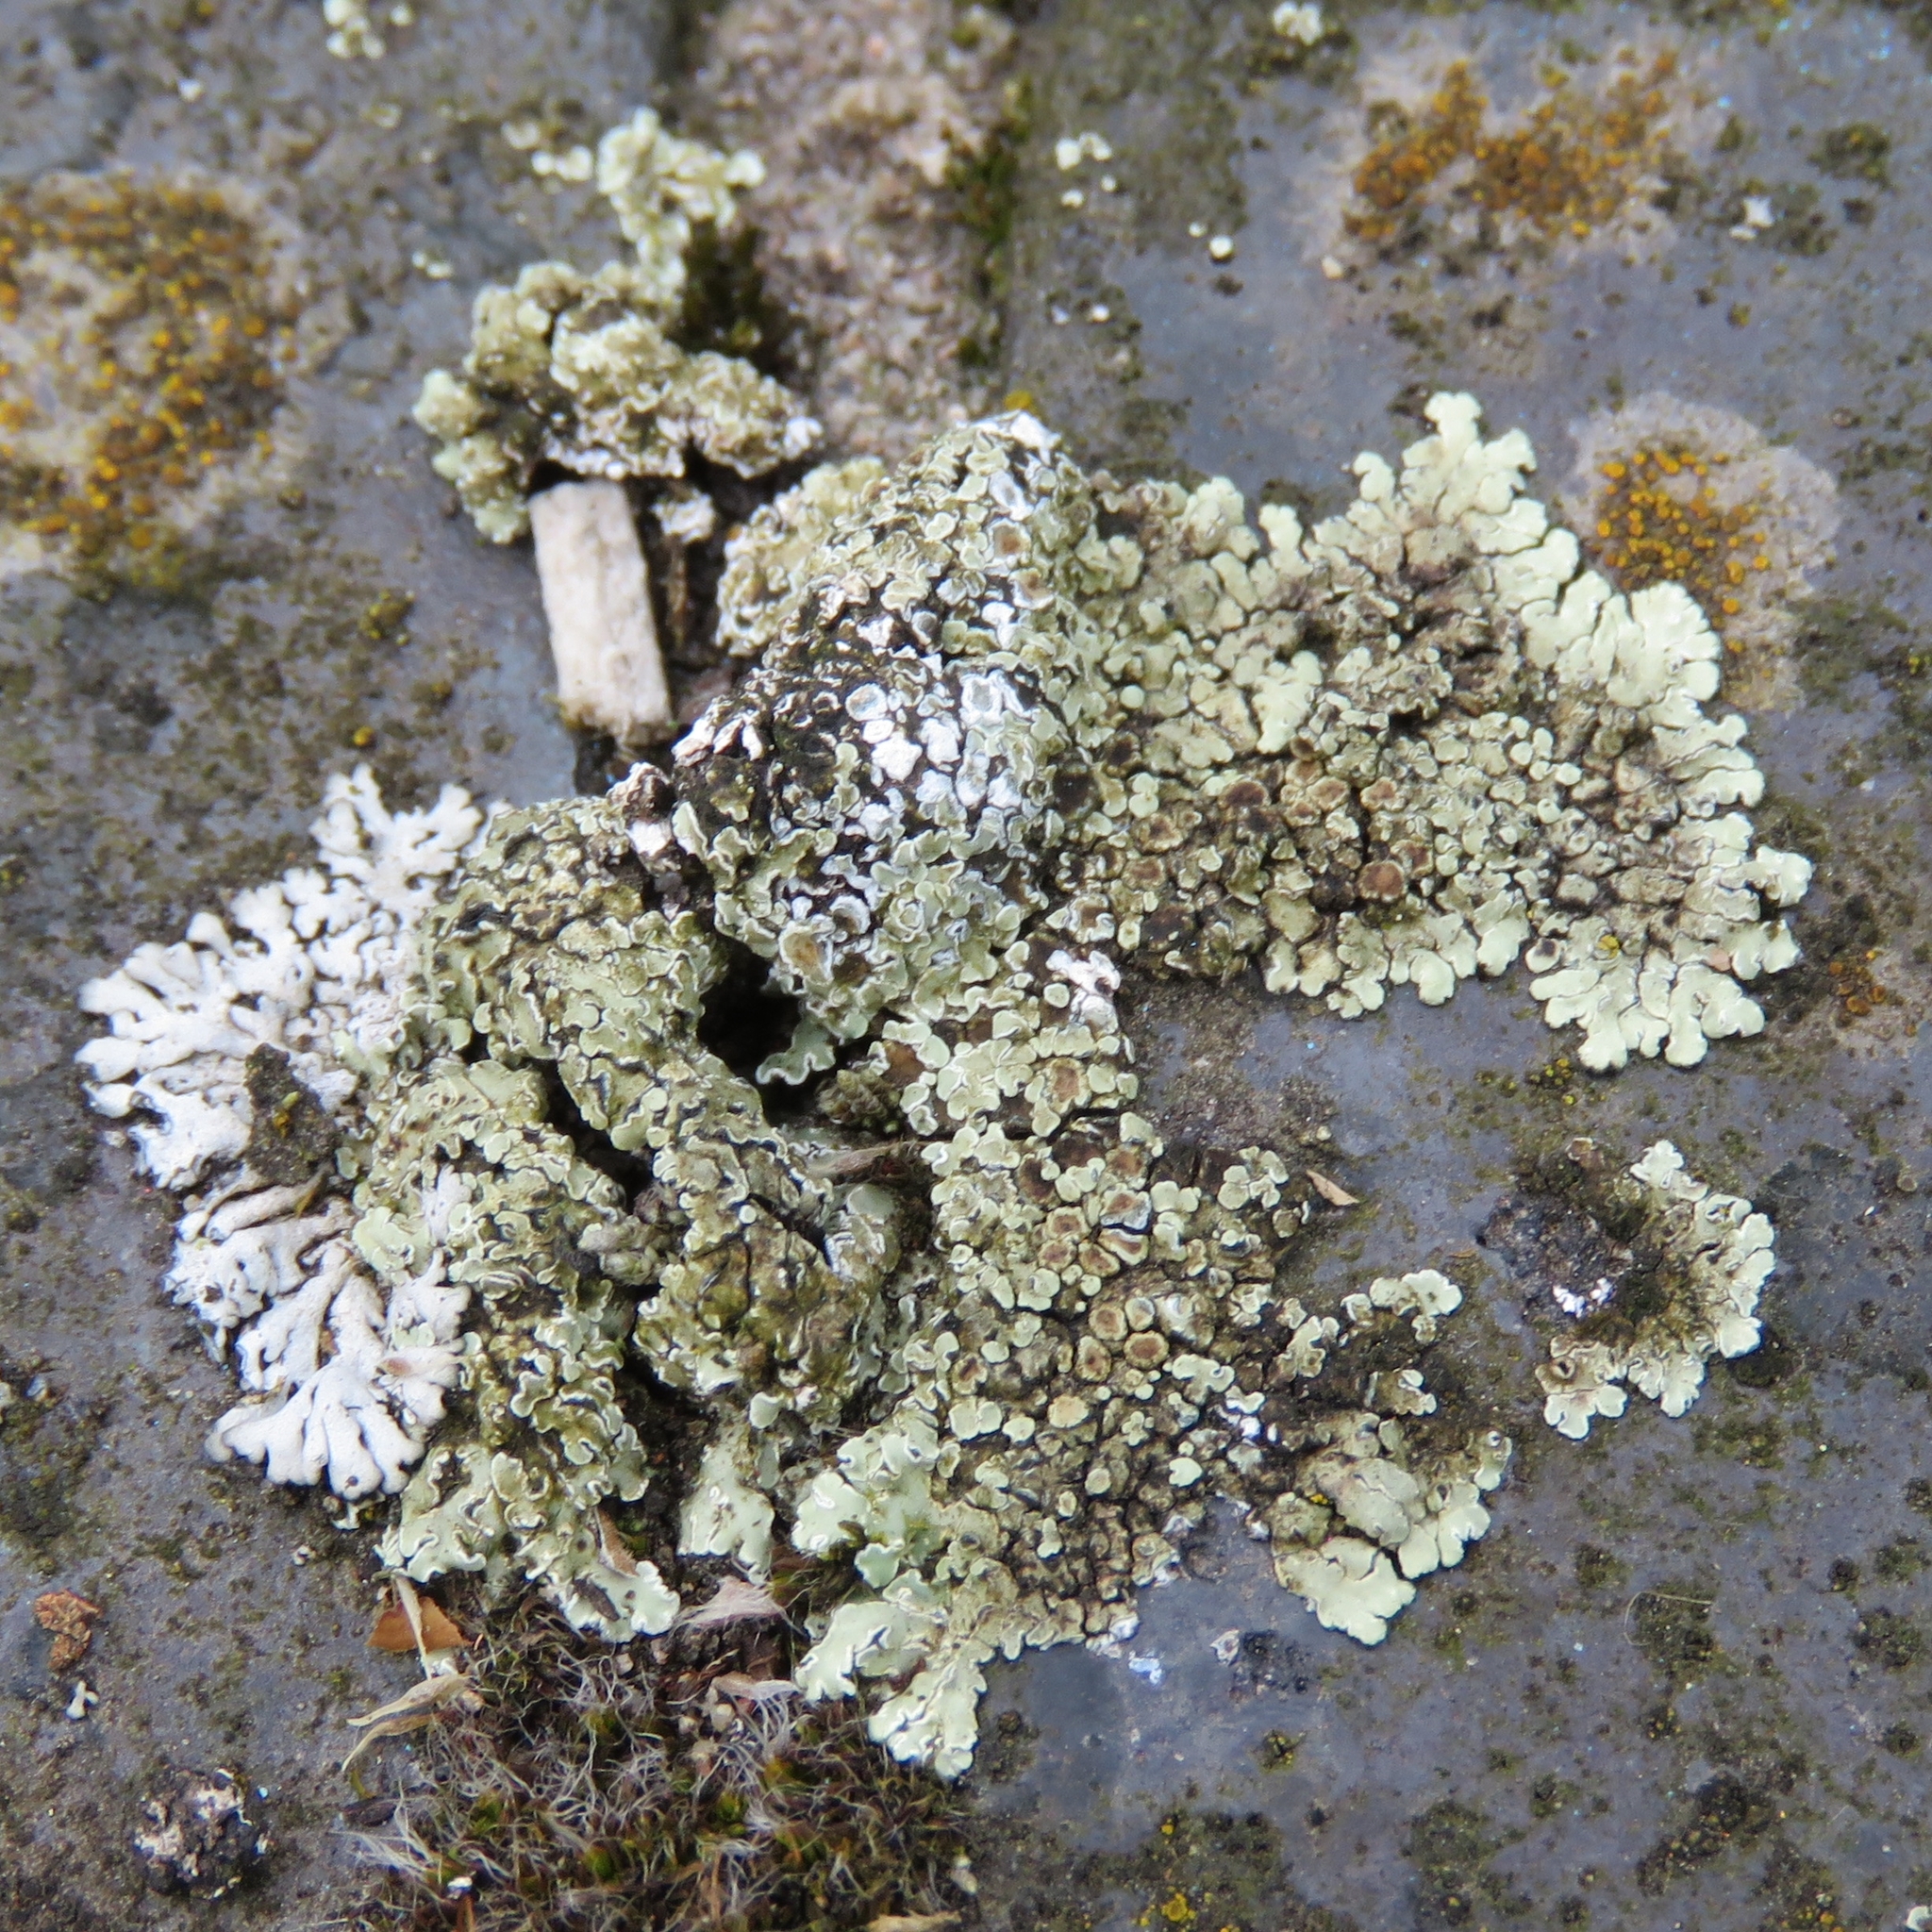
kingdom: Fungi
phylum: Ascomycota
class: Lecanoromycetes
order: Lecanorales
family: Lecanoraceae
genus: Protoparmeliopsis
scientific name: Protoparmeliopsis muralis
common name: Stonewall rim lichen
